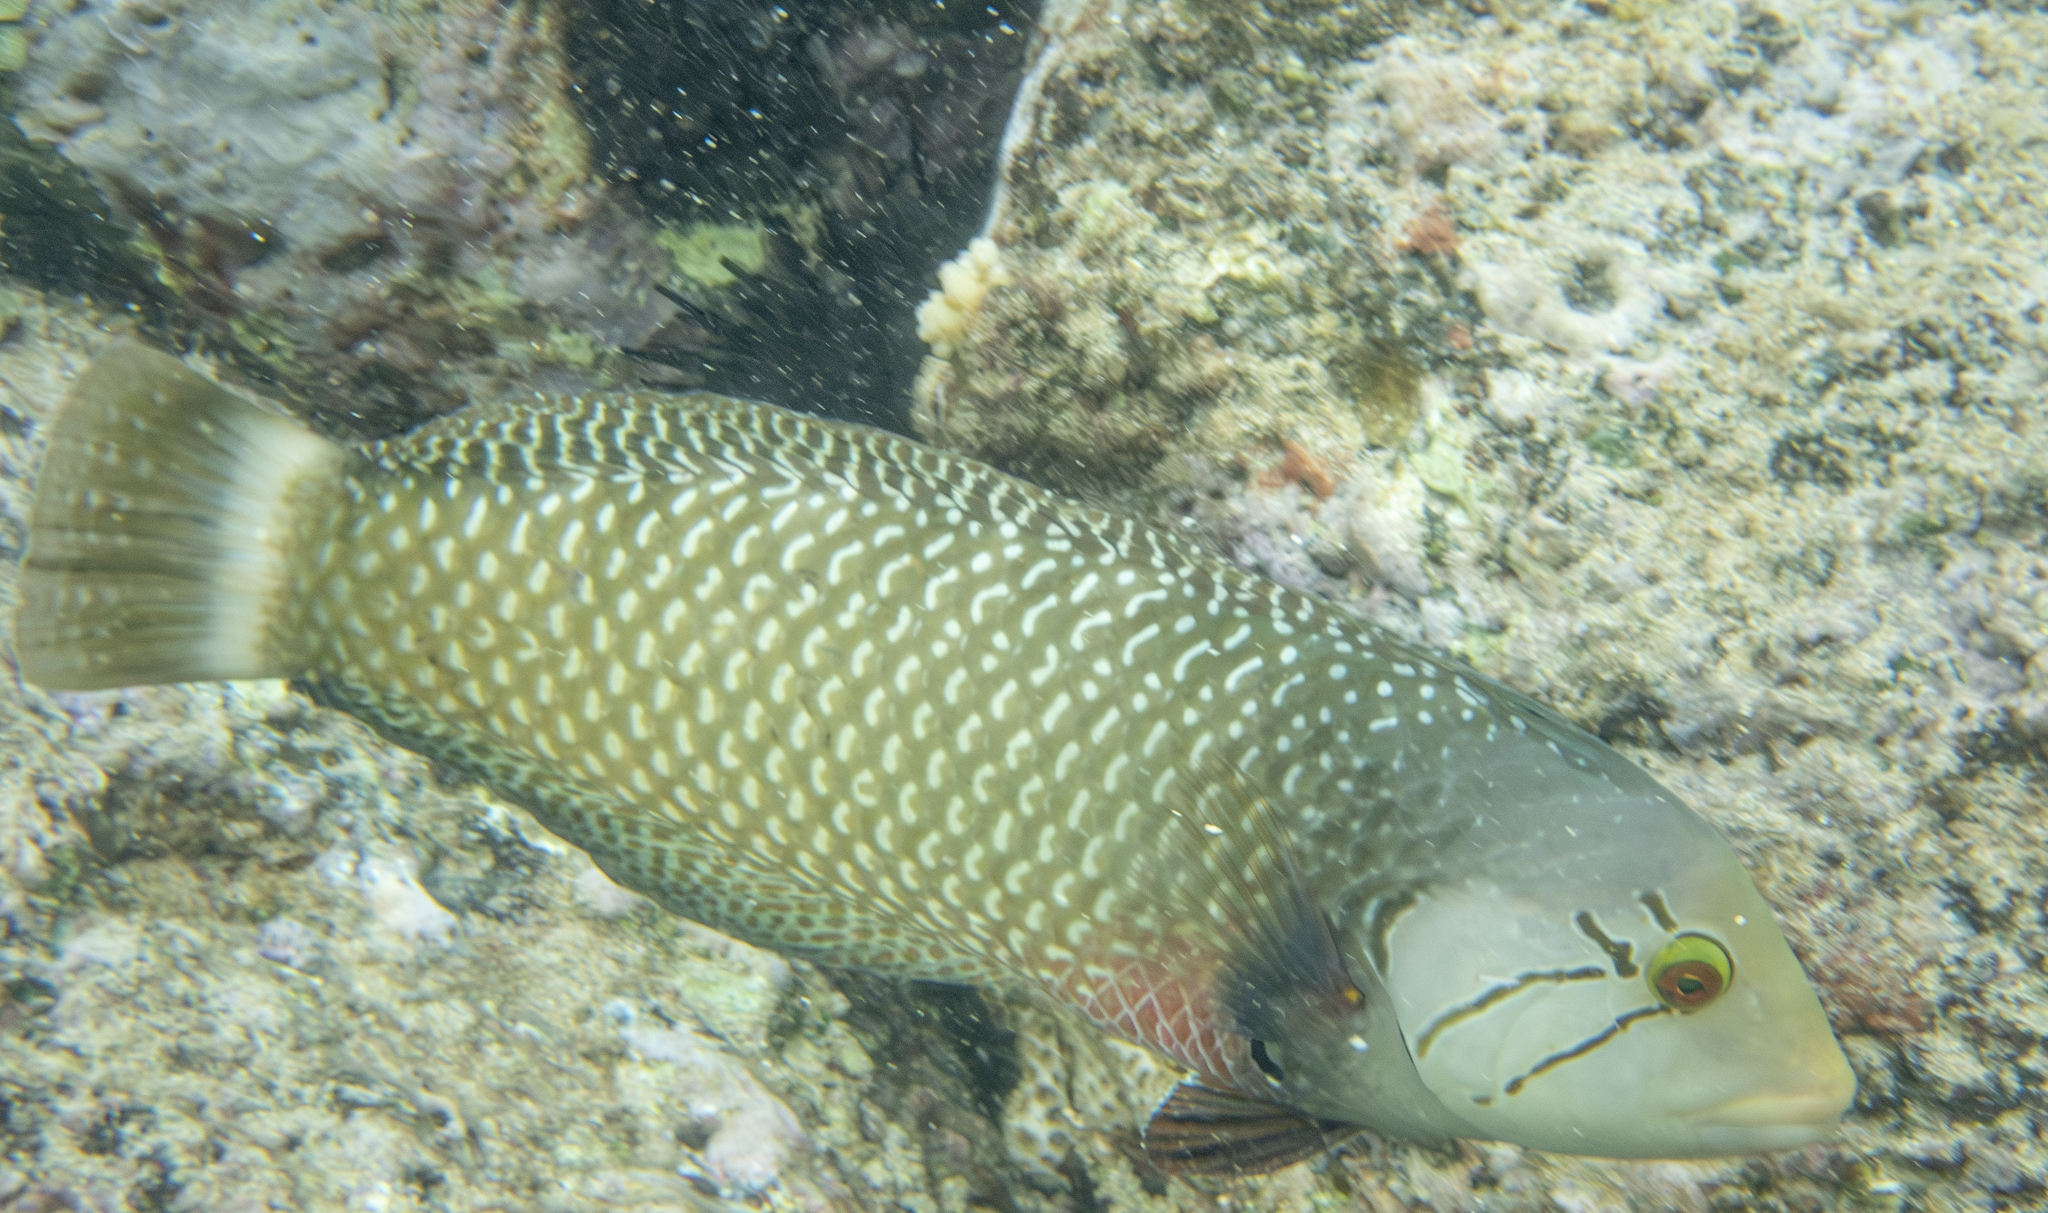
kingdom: Animalia
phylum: Chordata
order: Perciformes
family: Labridae
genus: Novaculichthys
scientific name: Novaculichthys taeniourus
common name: Rockmover wrasse
